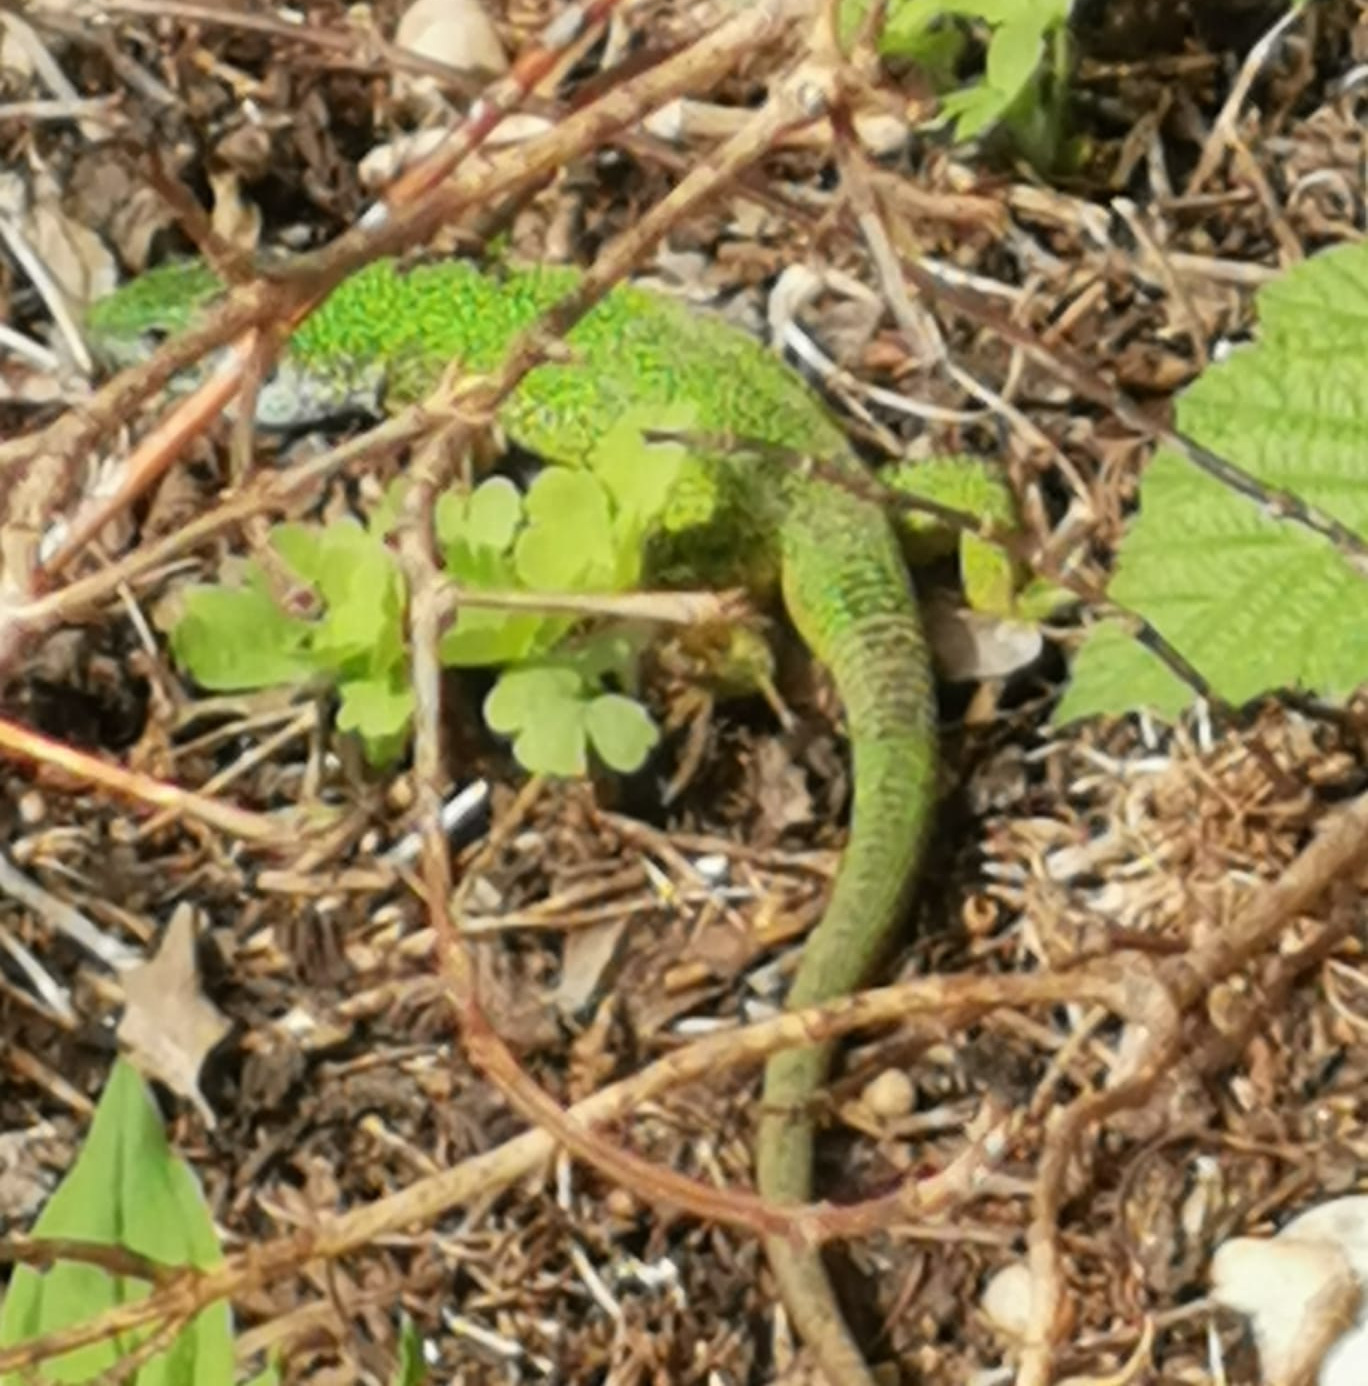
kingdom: Animalia
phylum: Chordata
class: Squamata
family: Lacertidae
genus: Lacerta
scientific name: Lacerta viridis
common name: European green lizard
